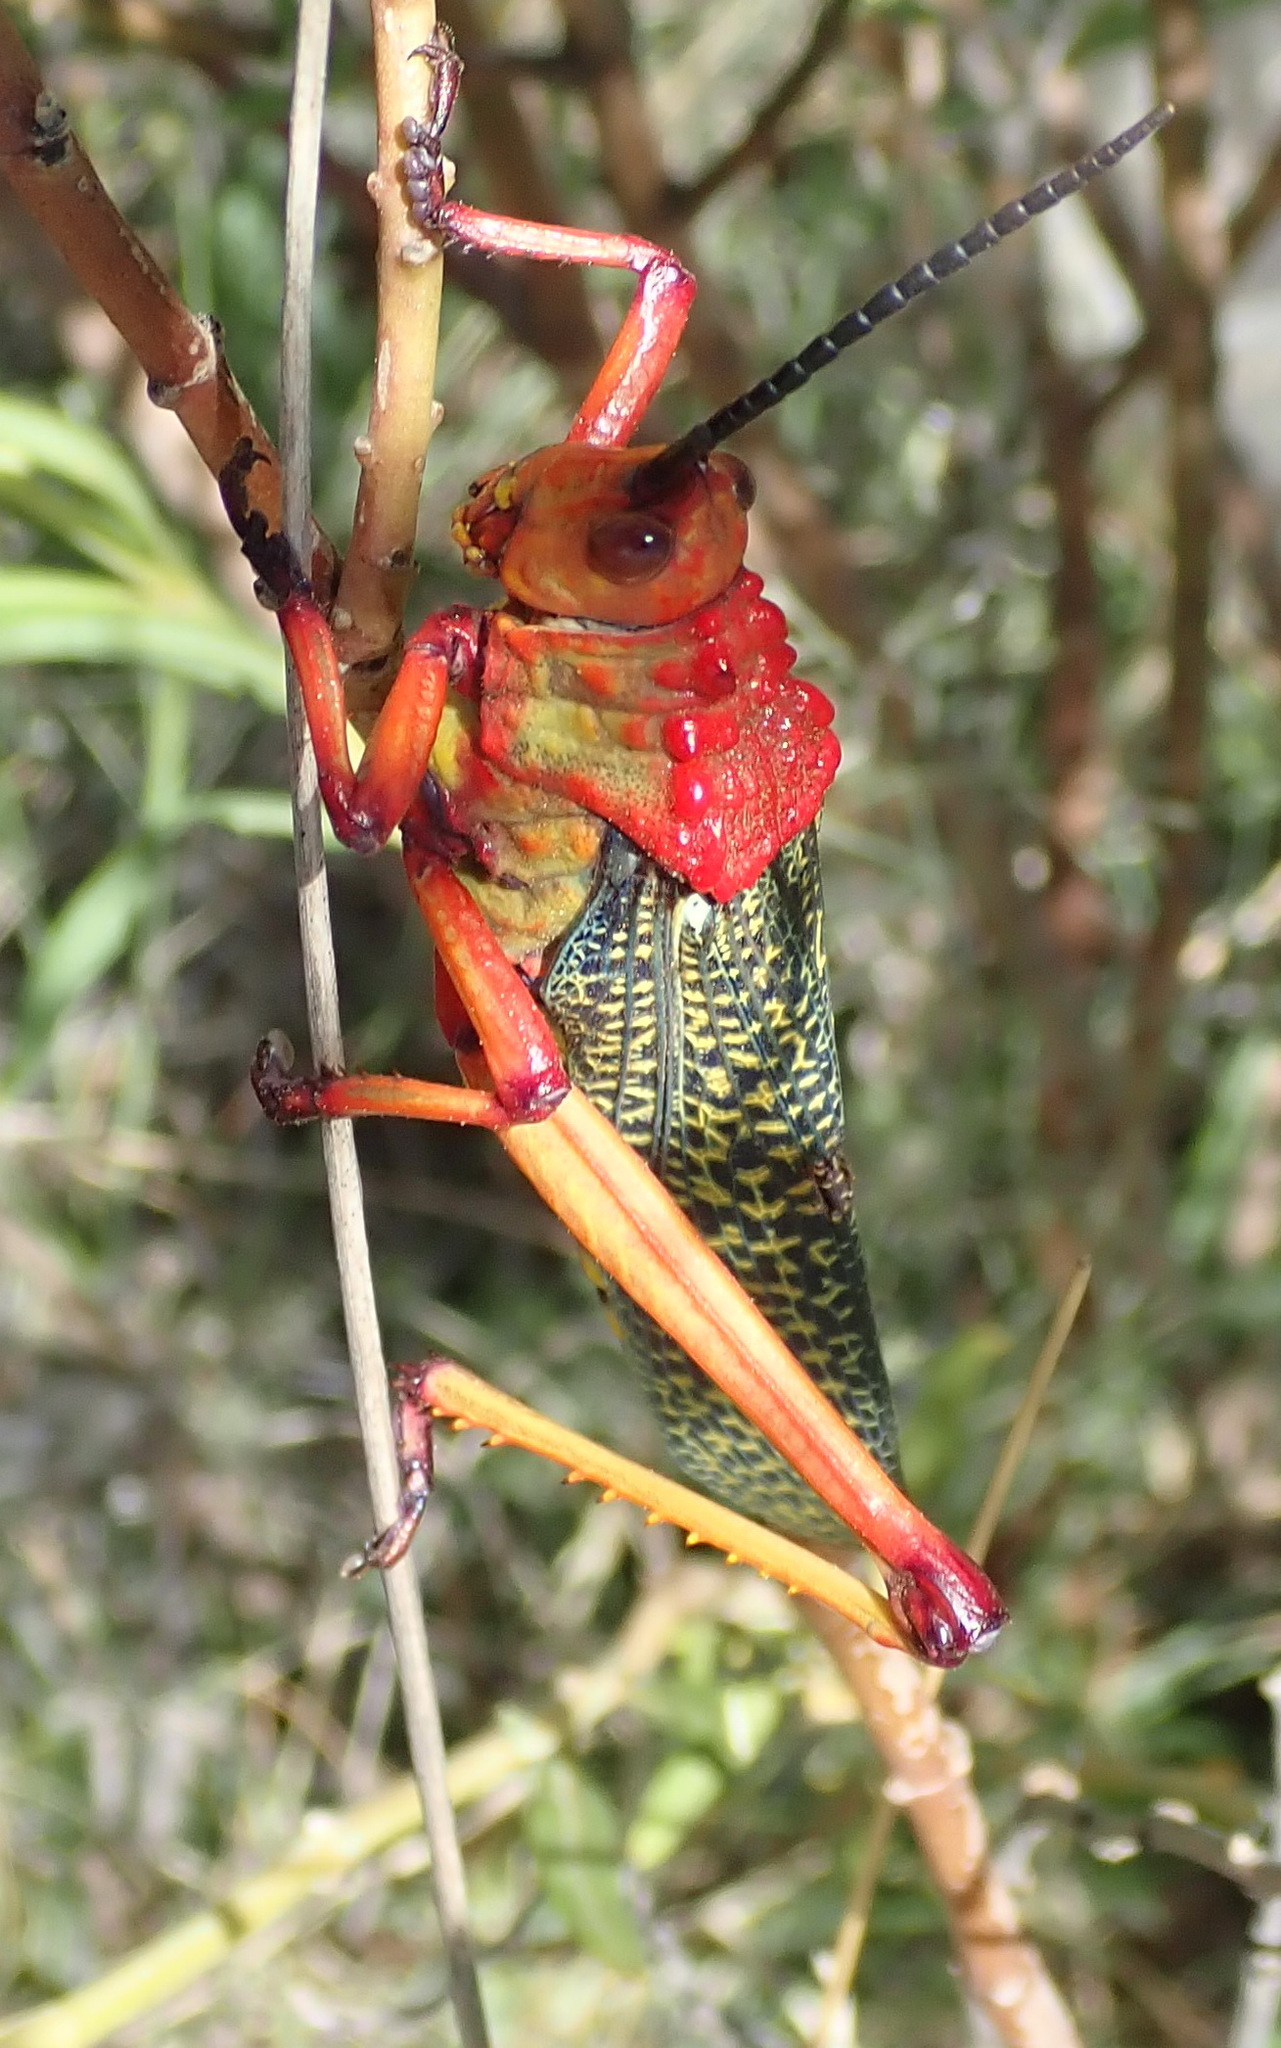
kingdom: Animalia
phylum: Arthropoda
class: Insecta
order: Orthoptera
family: Pyrgomorphidae
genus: Phymateus
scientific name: Phymateus morbillosus
